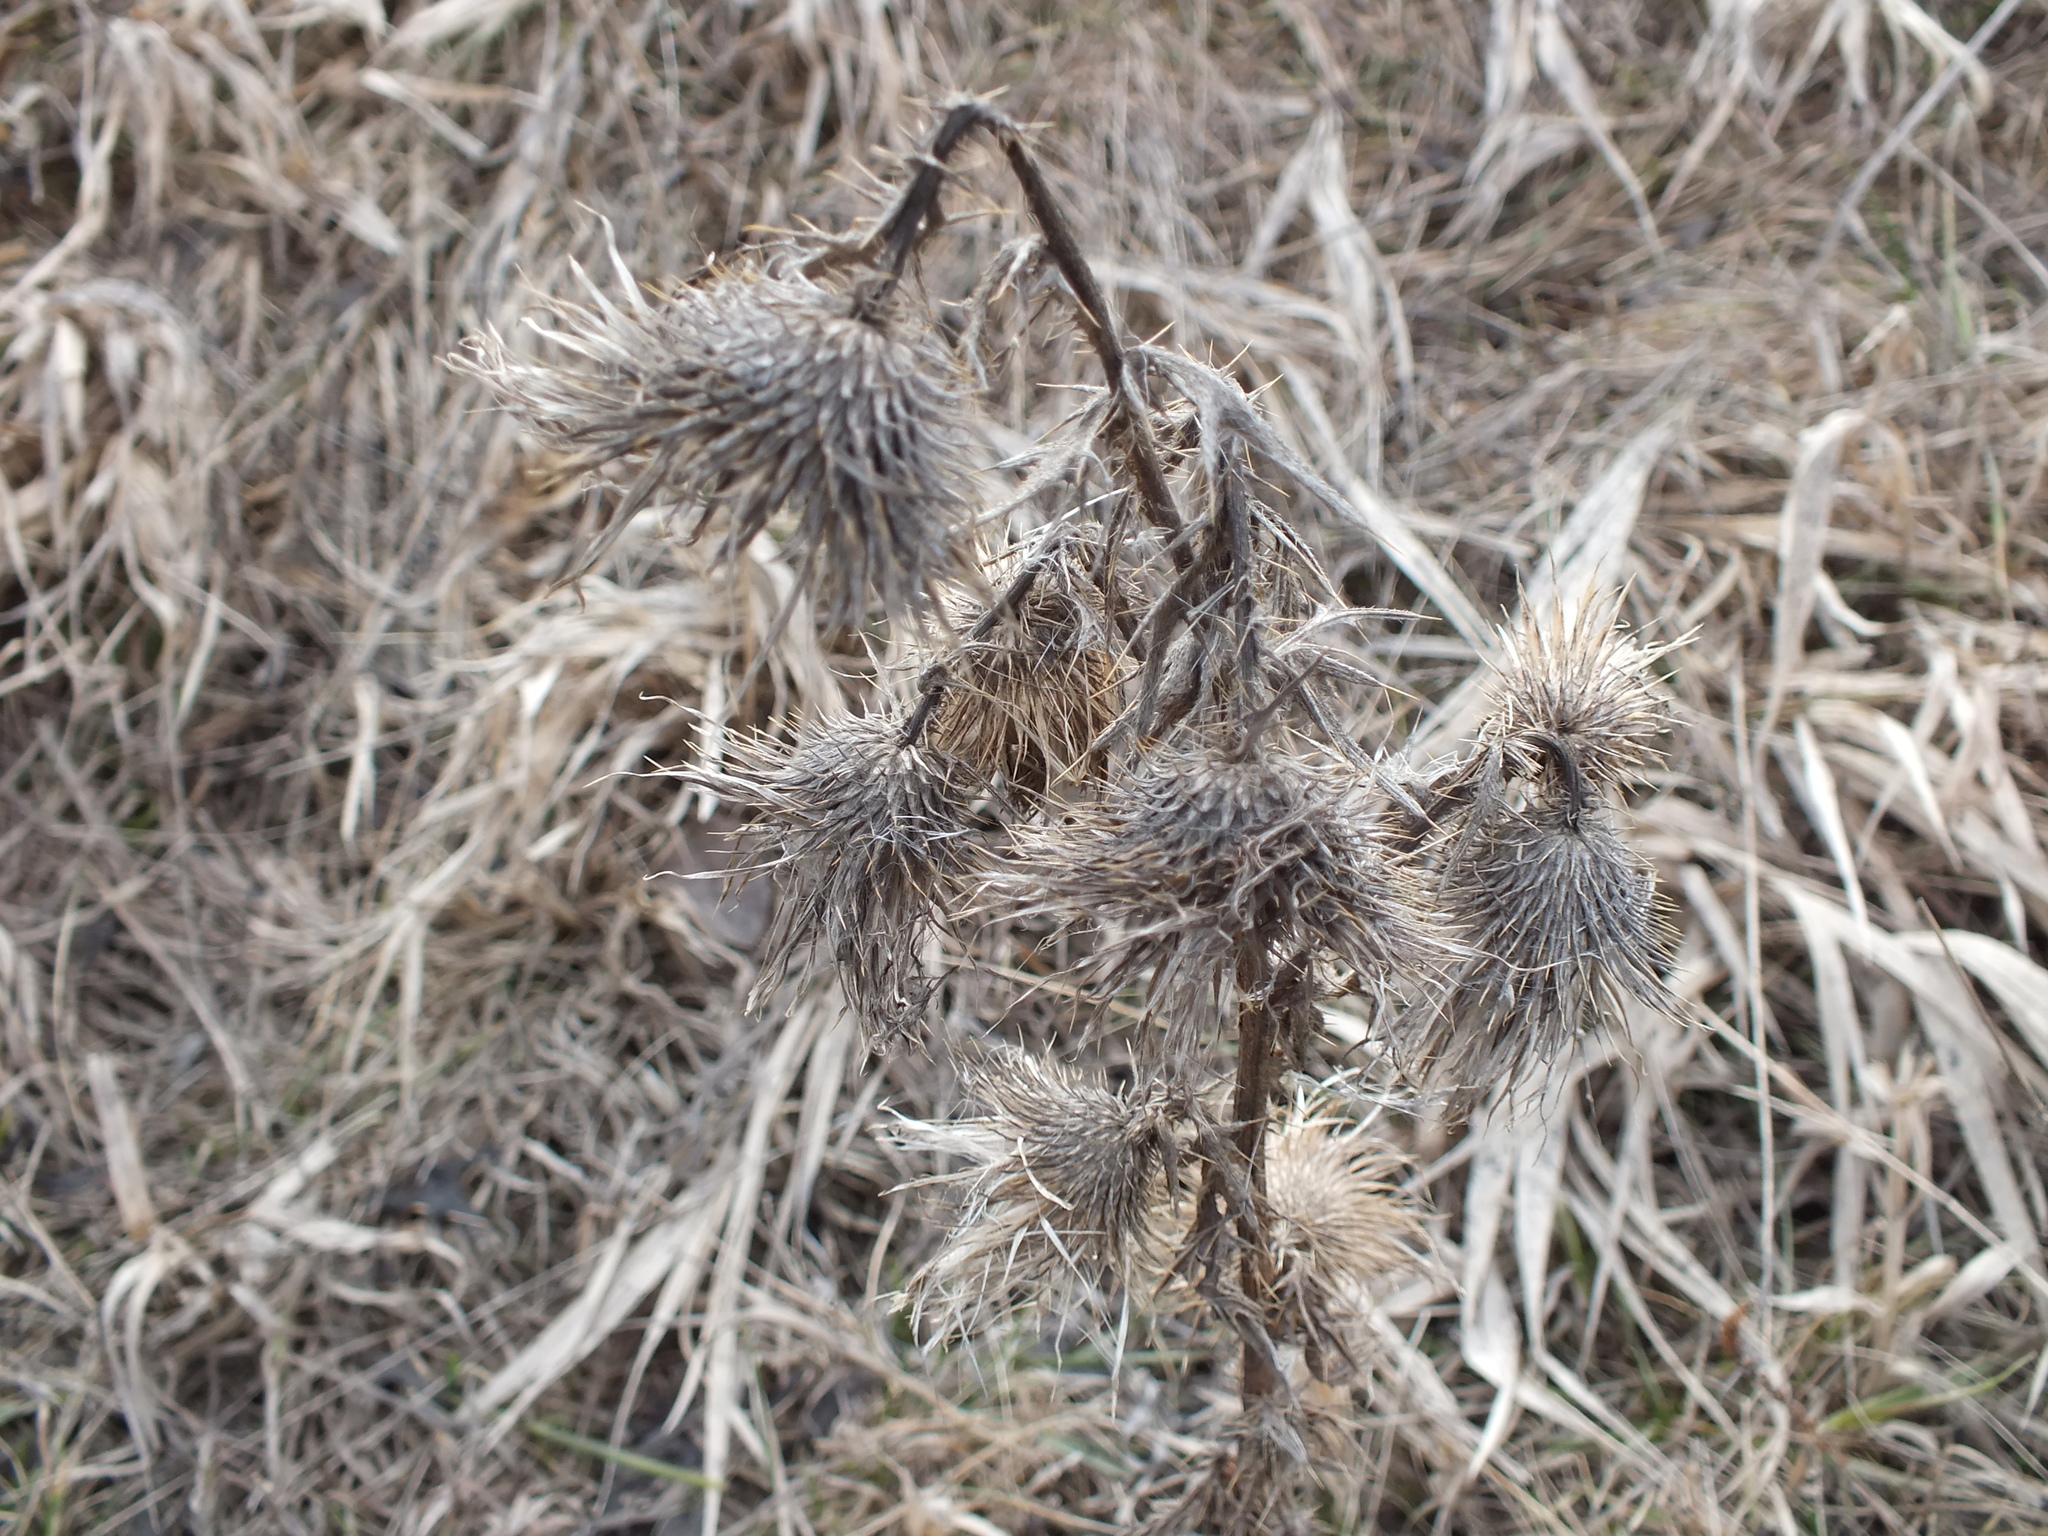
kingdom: Plantae
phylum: Tracheophyta
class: Magnoliopsida
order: Asterales
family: Asteraceae
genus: Cirsium
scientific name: Cirsium vulgare
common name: Bull thistle
